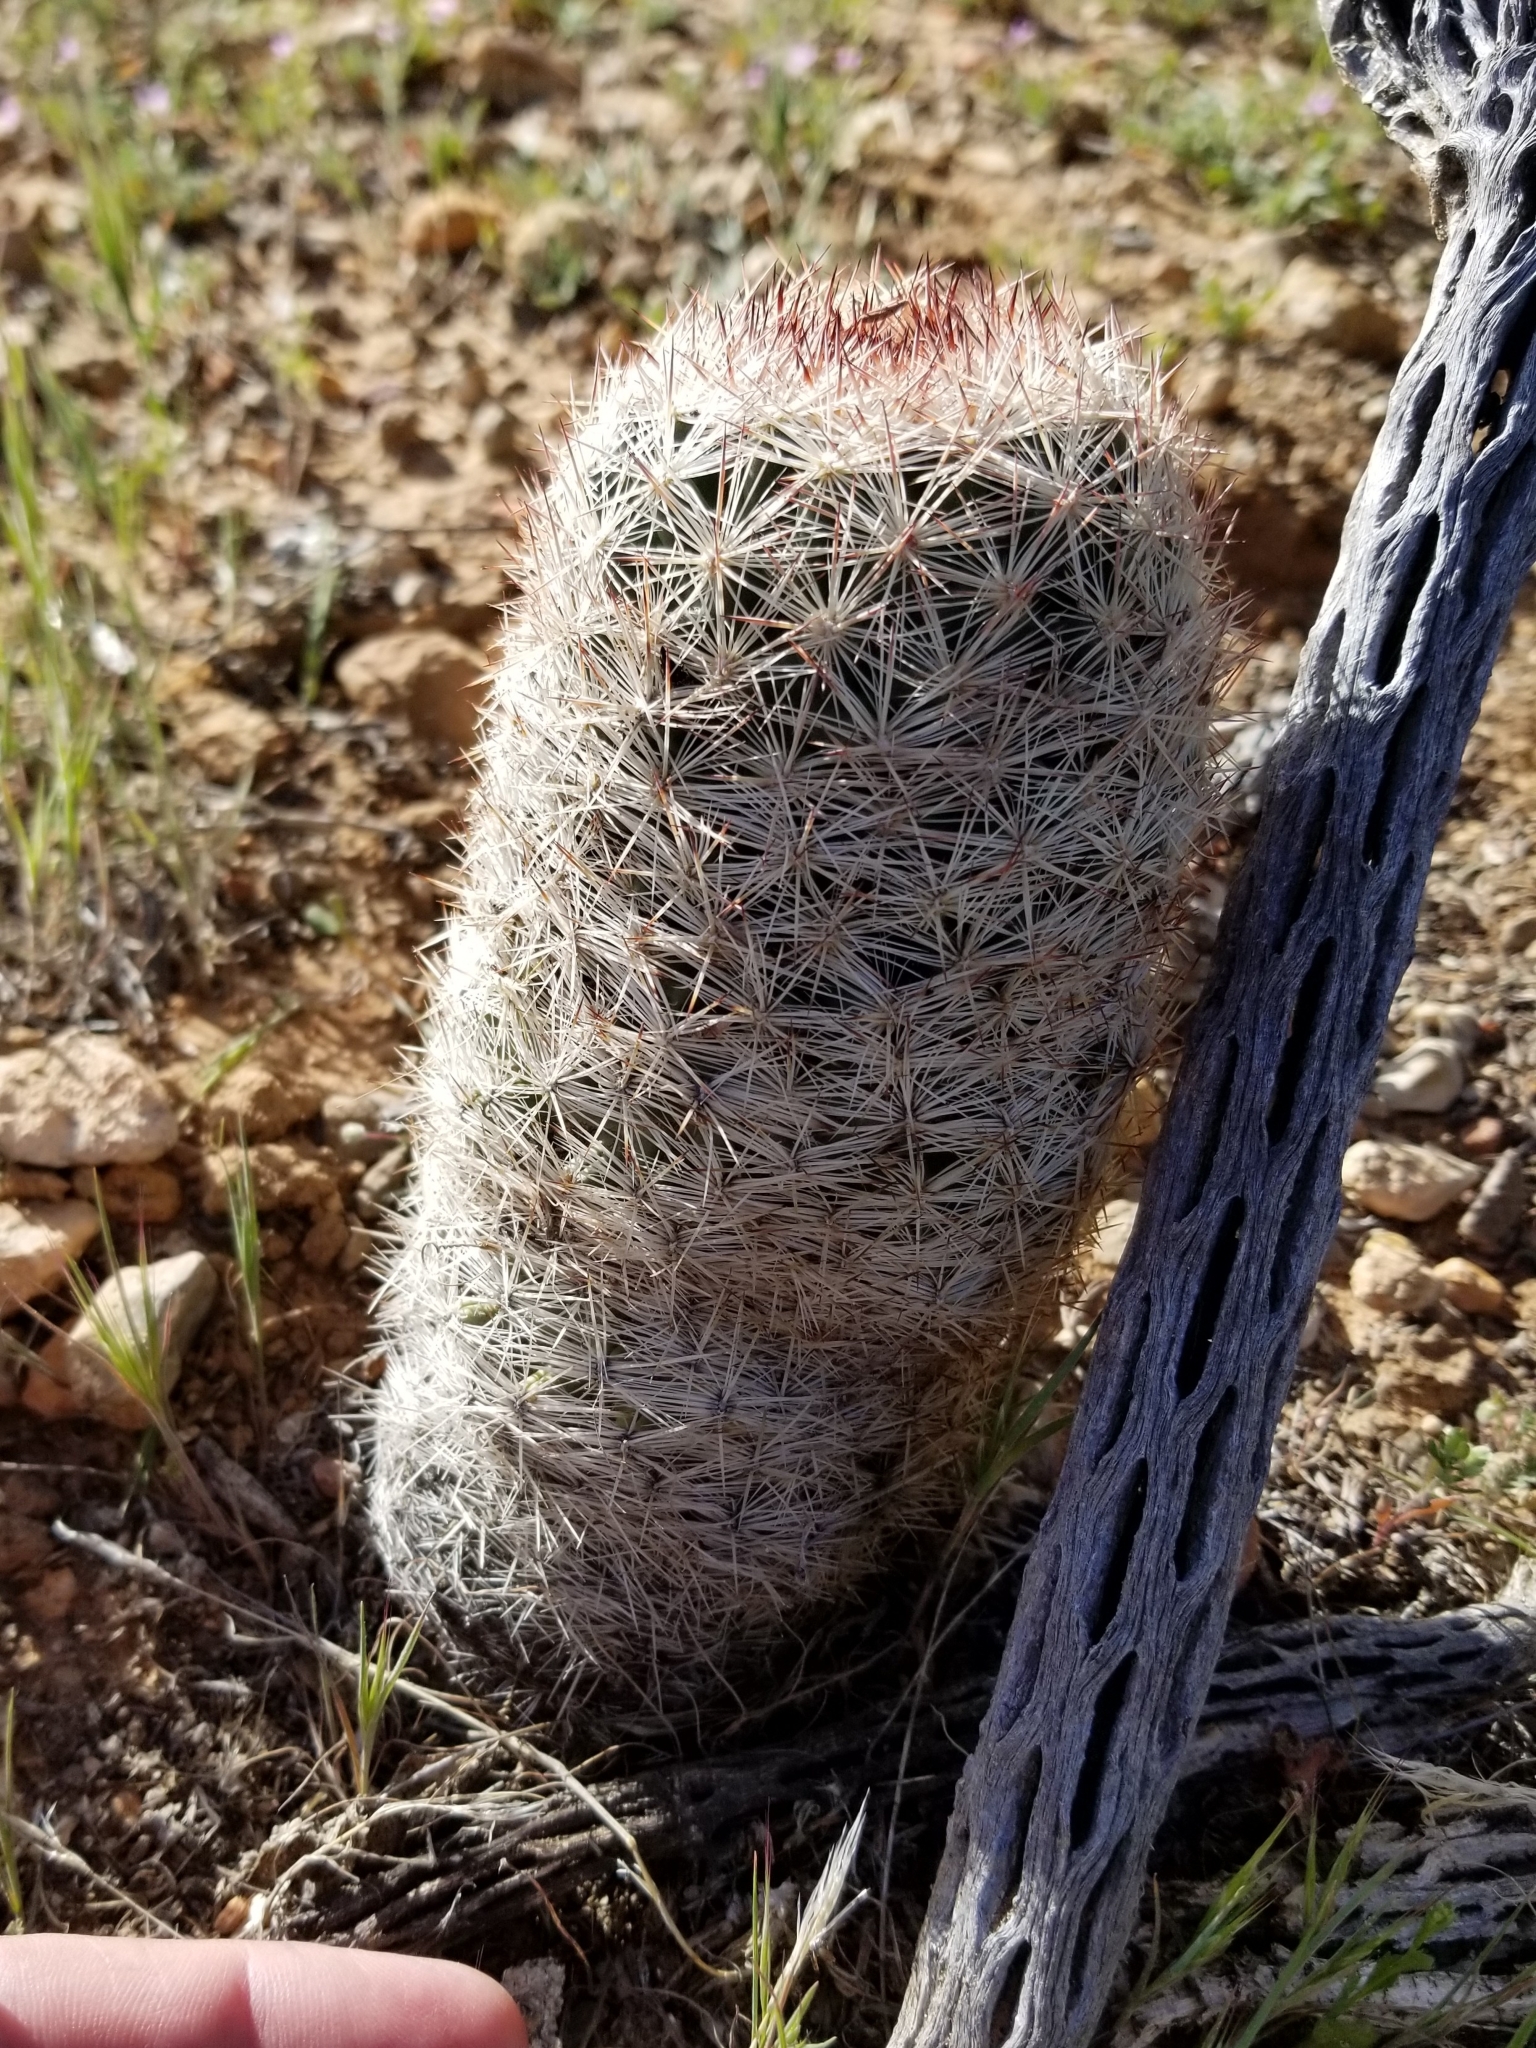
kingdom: Plantae
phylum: Tracheophyta
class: Magnoliopsida
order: Caryophyllales
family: Cactaceae
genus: Pelecyphora
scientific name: Pelecyphora dasyacantha
